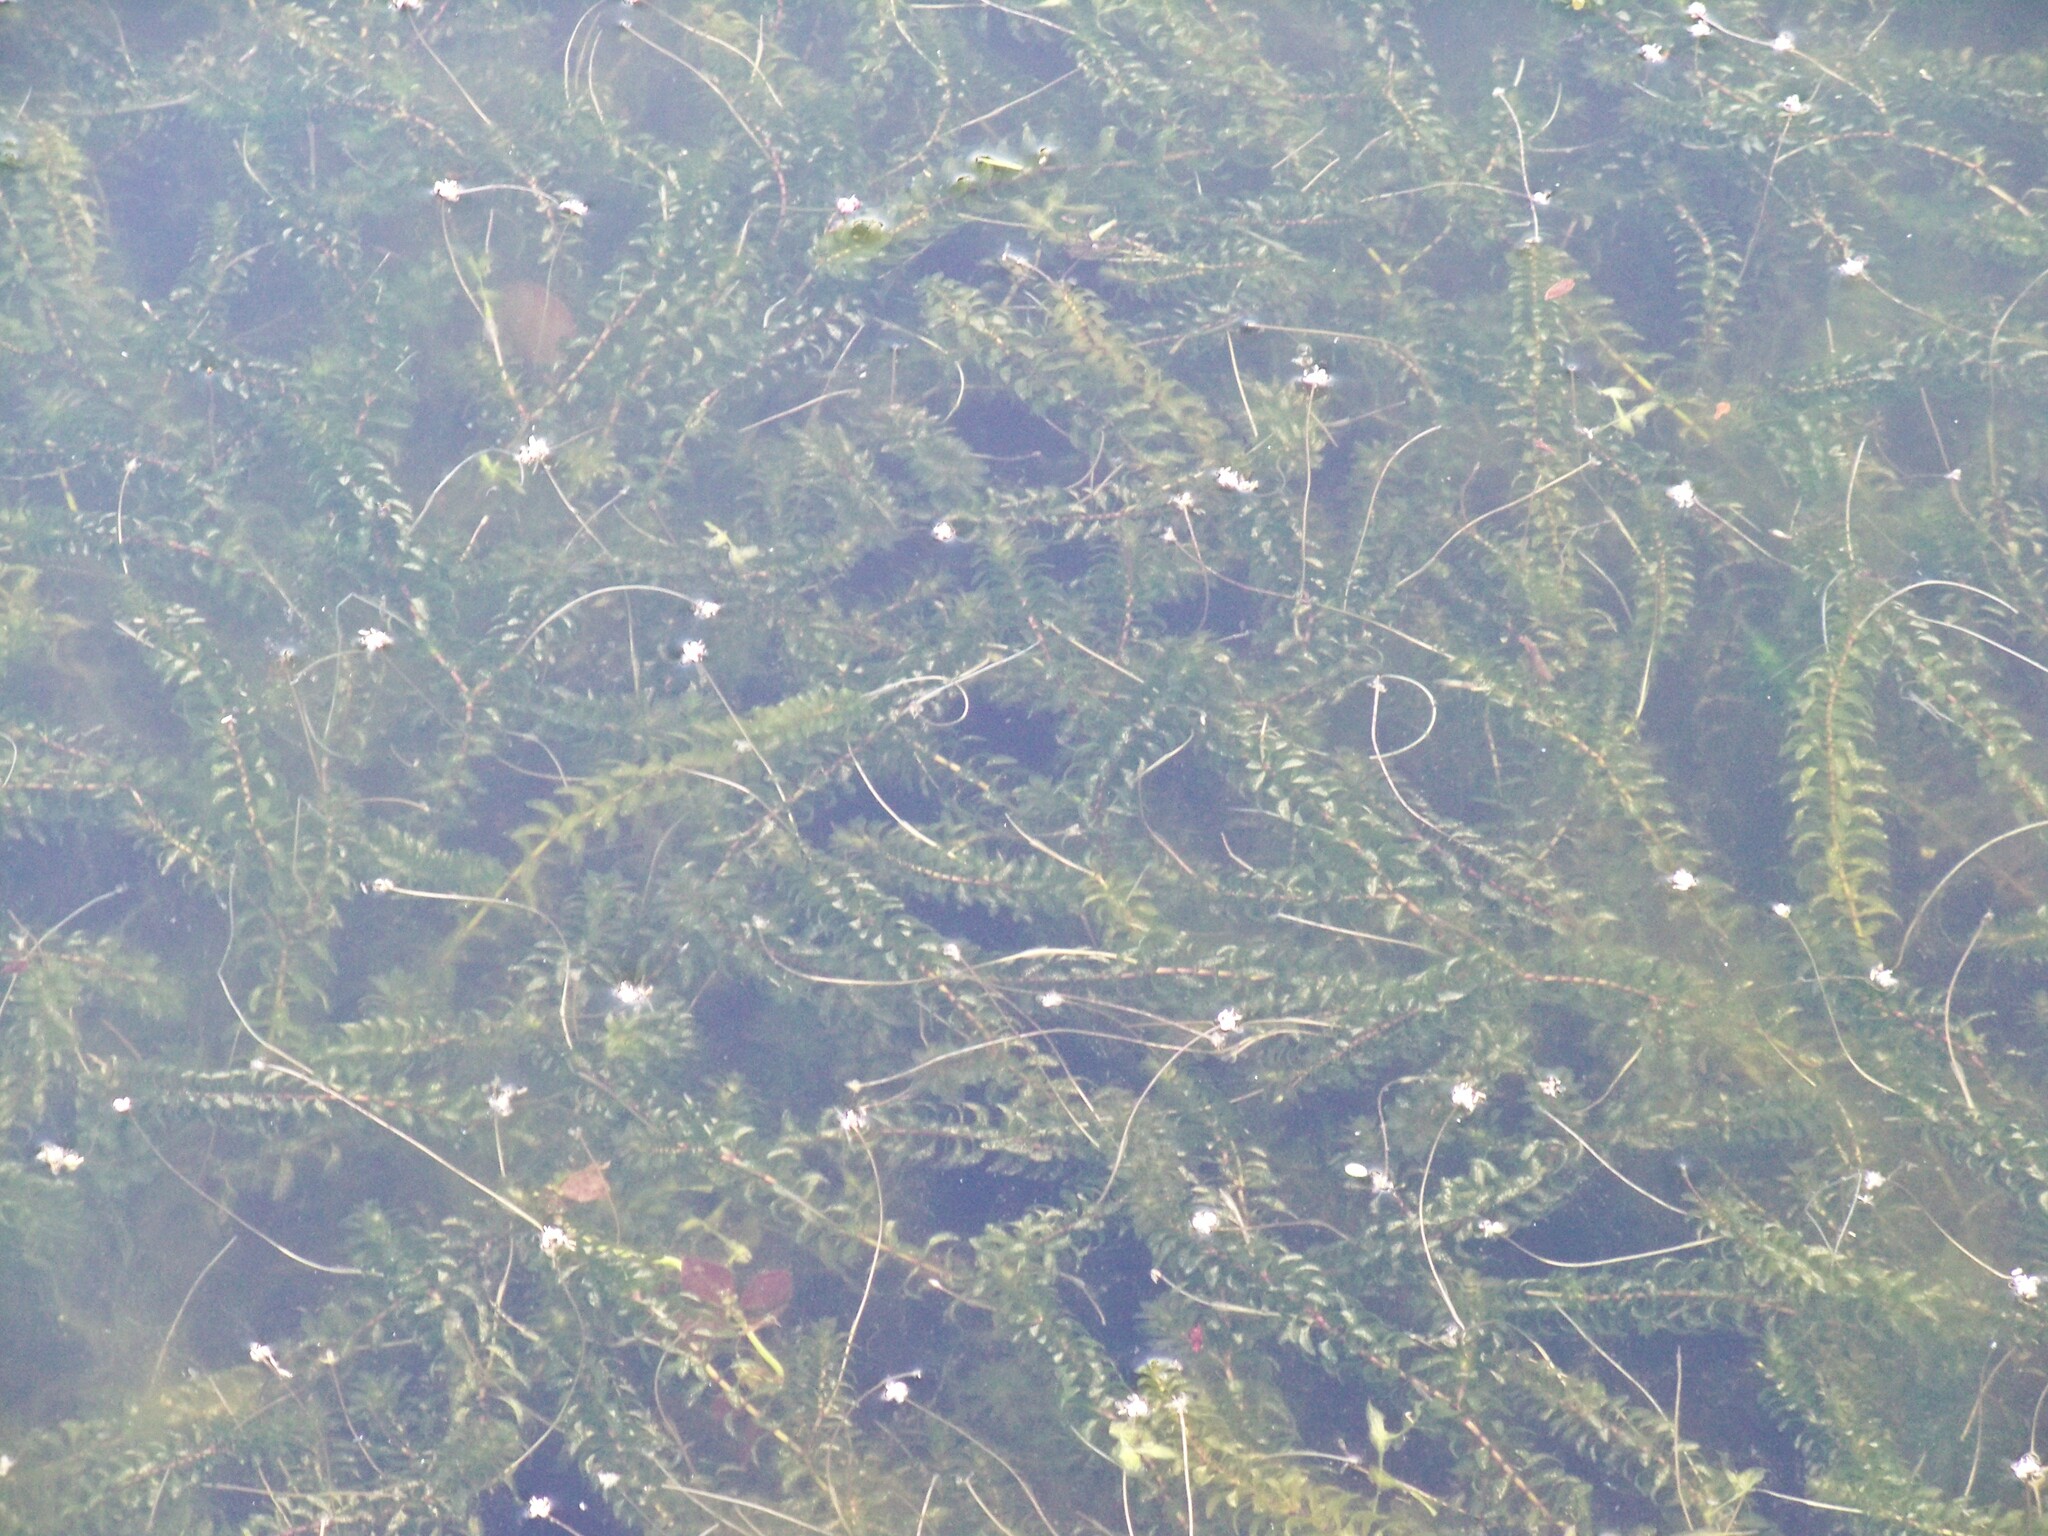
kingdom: Plantae
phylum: Tracheophyta
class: Liliopsida
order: Alismatales
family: Hydrocharitaceae
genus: Elodea
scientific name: Elodea canadensis
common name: Canadian waterweed
